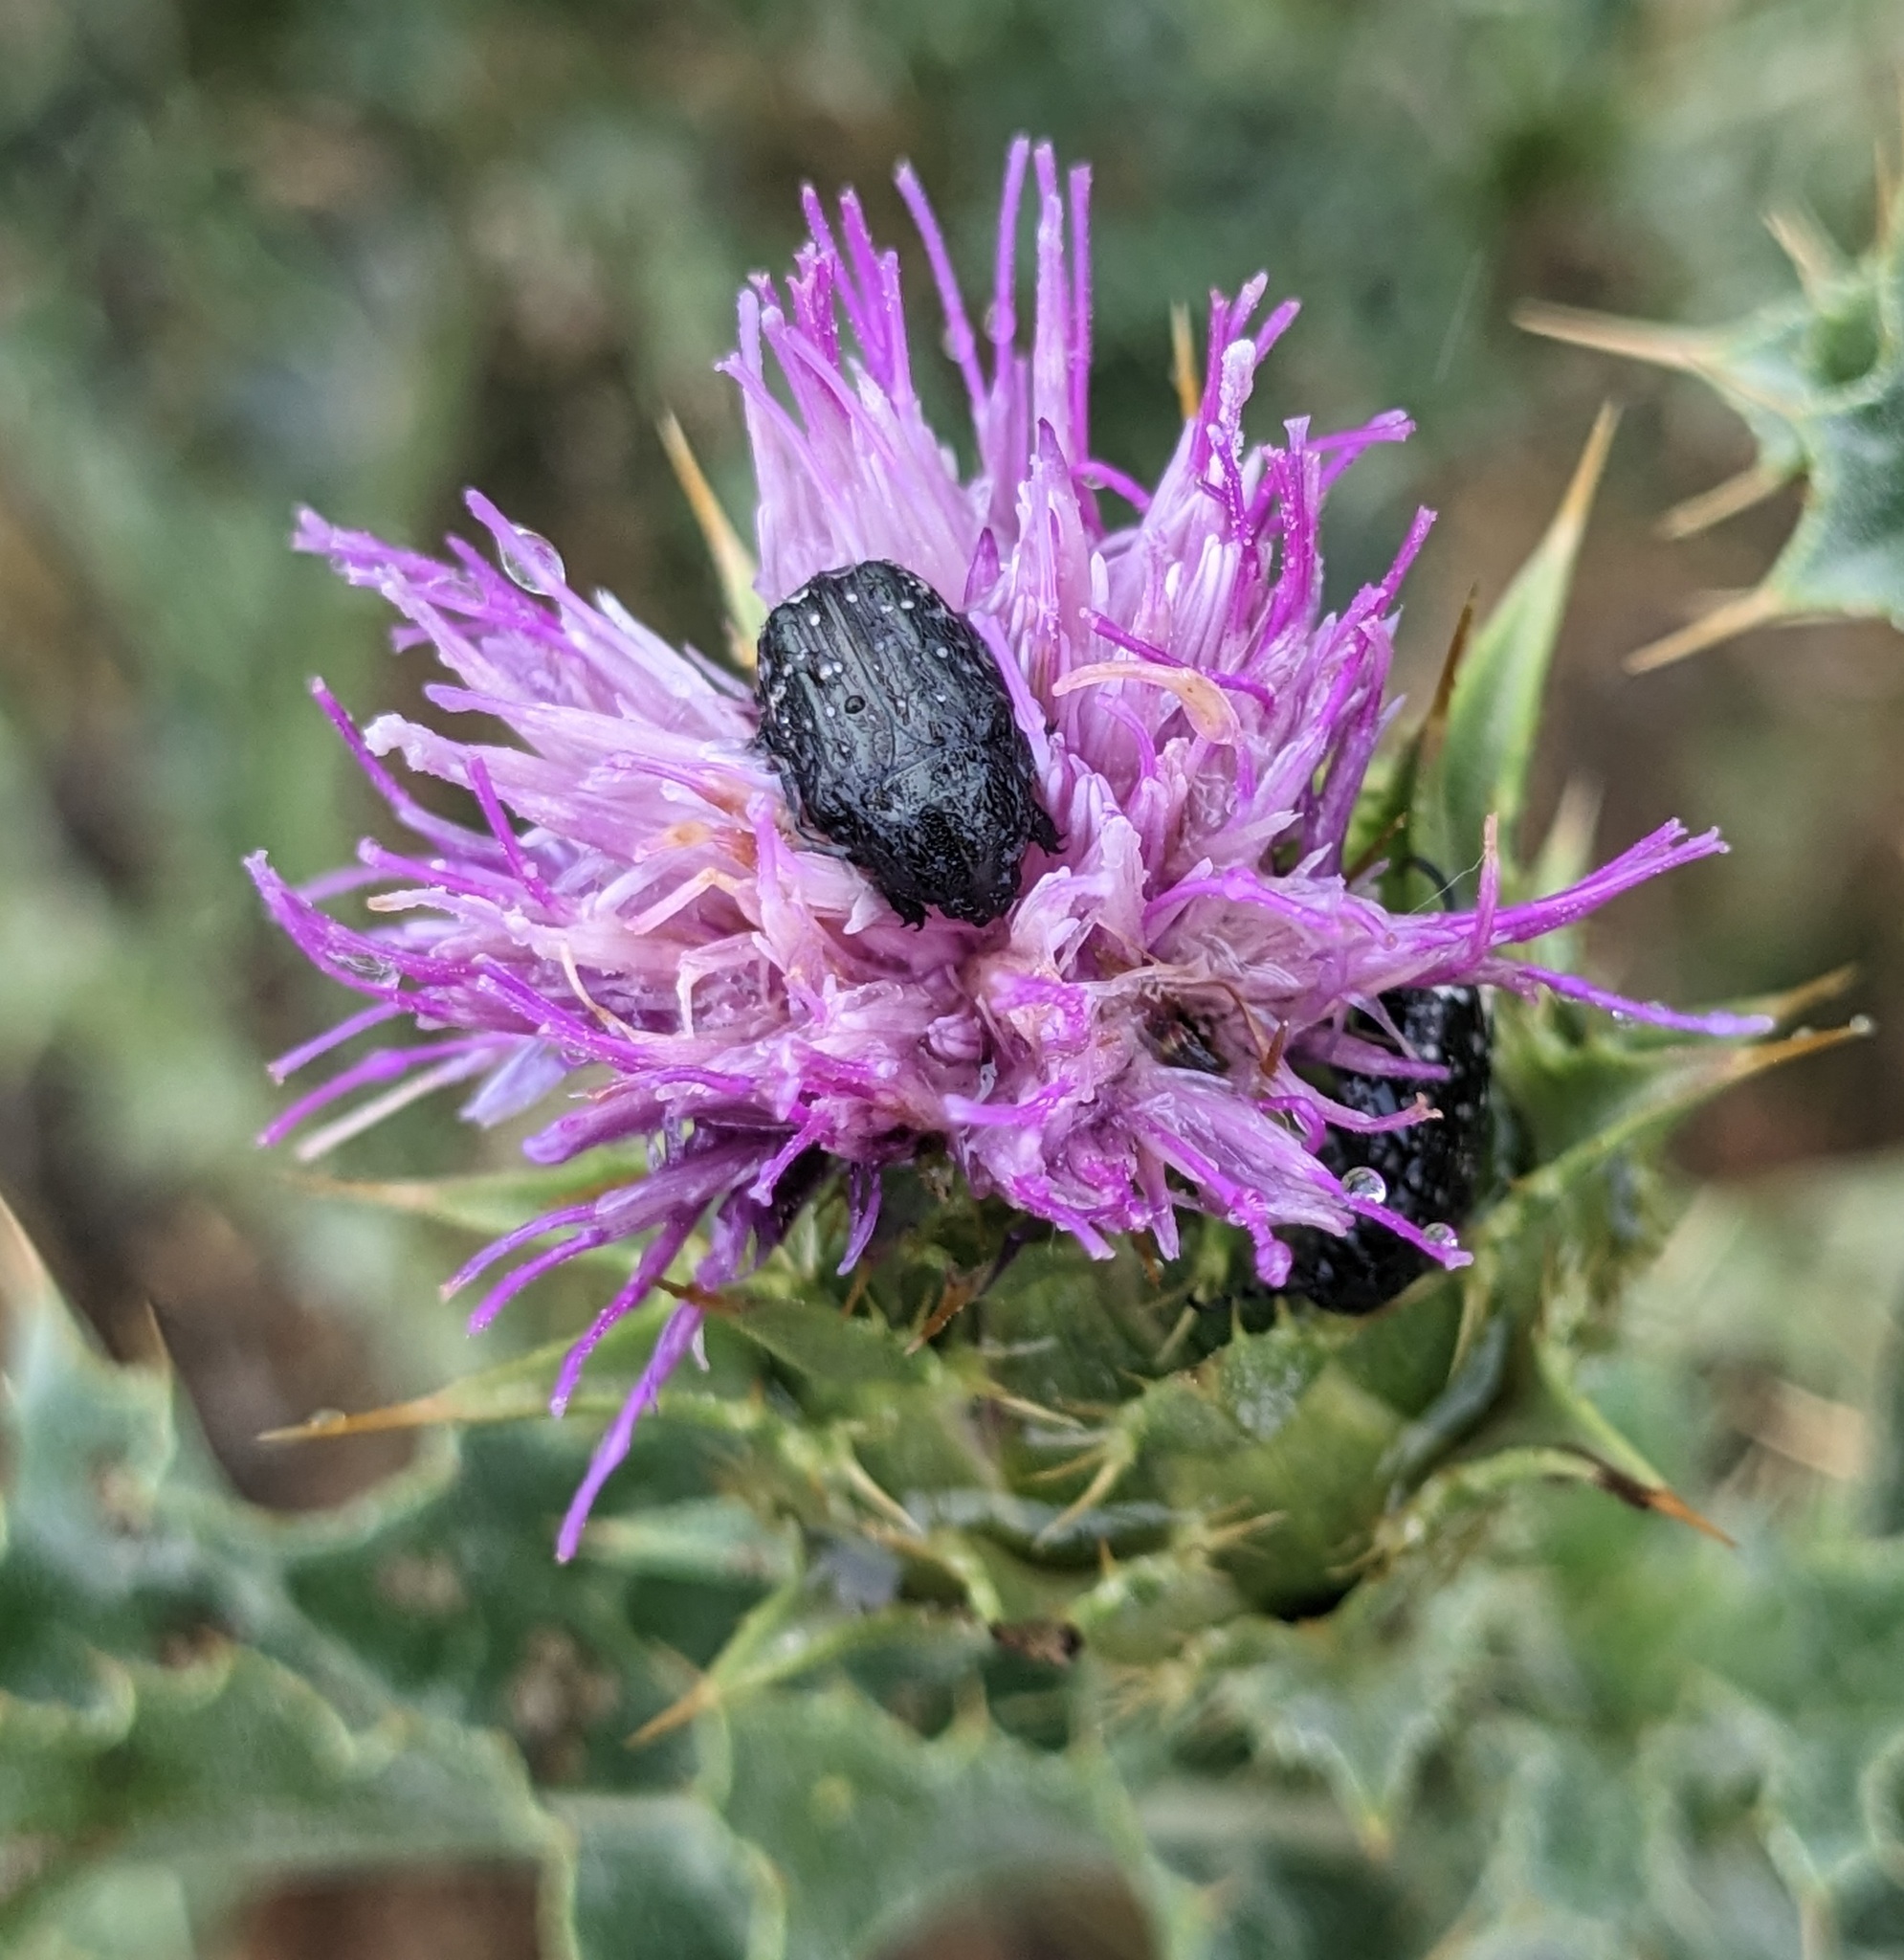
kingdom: Animalia
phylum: Arthropoda
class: Insecta
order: Coleoptera
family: Scarabaeidae
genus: Oxythyrea
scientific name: Oxythyrea funesta
